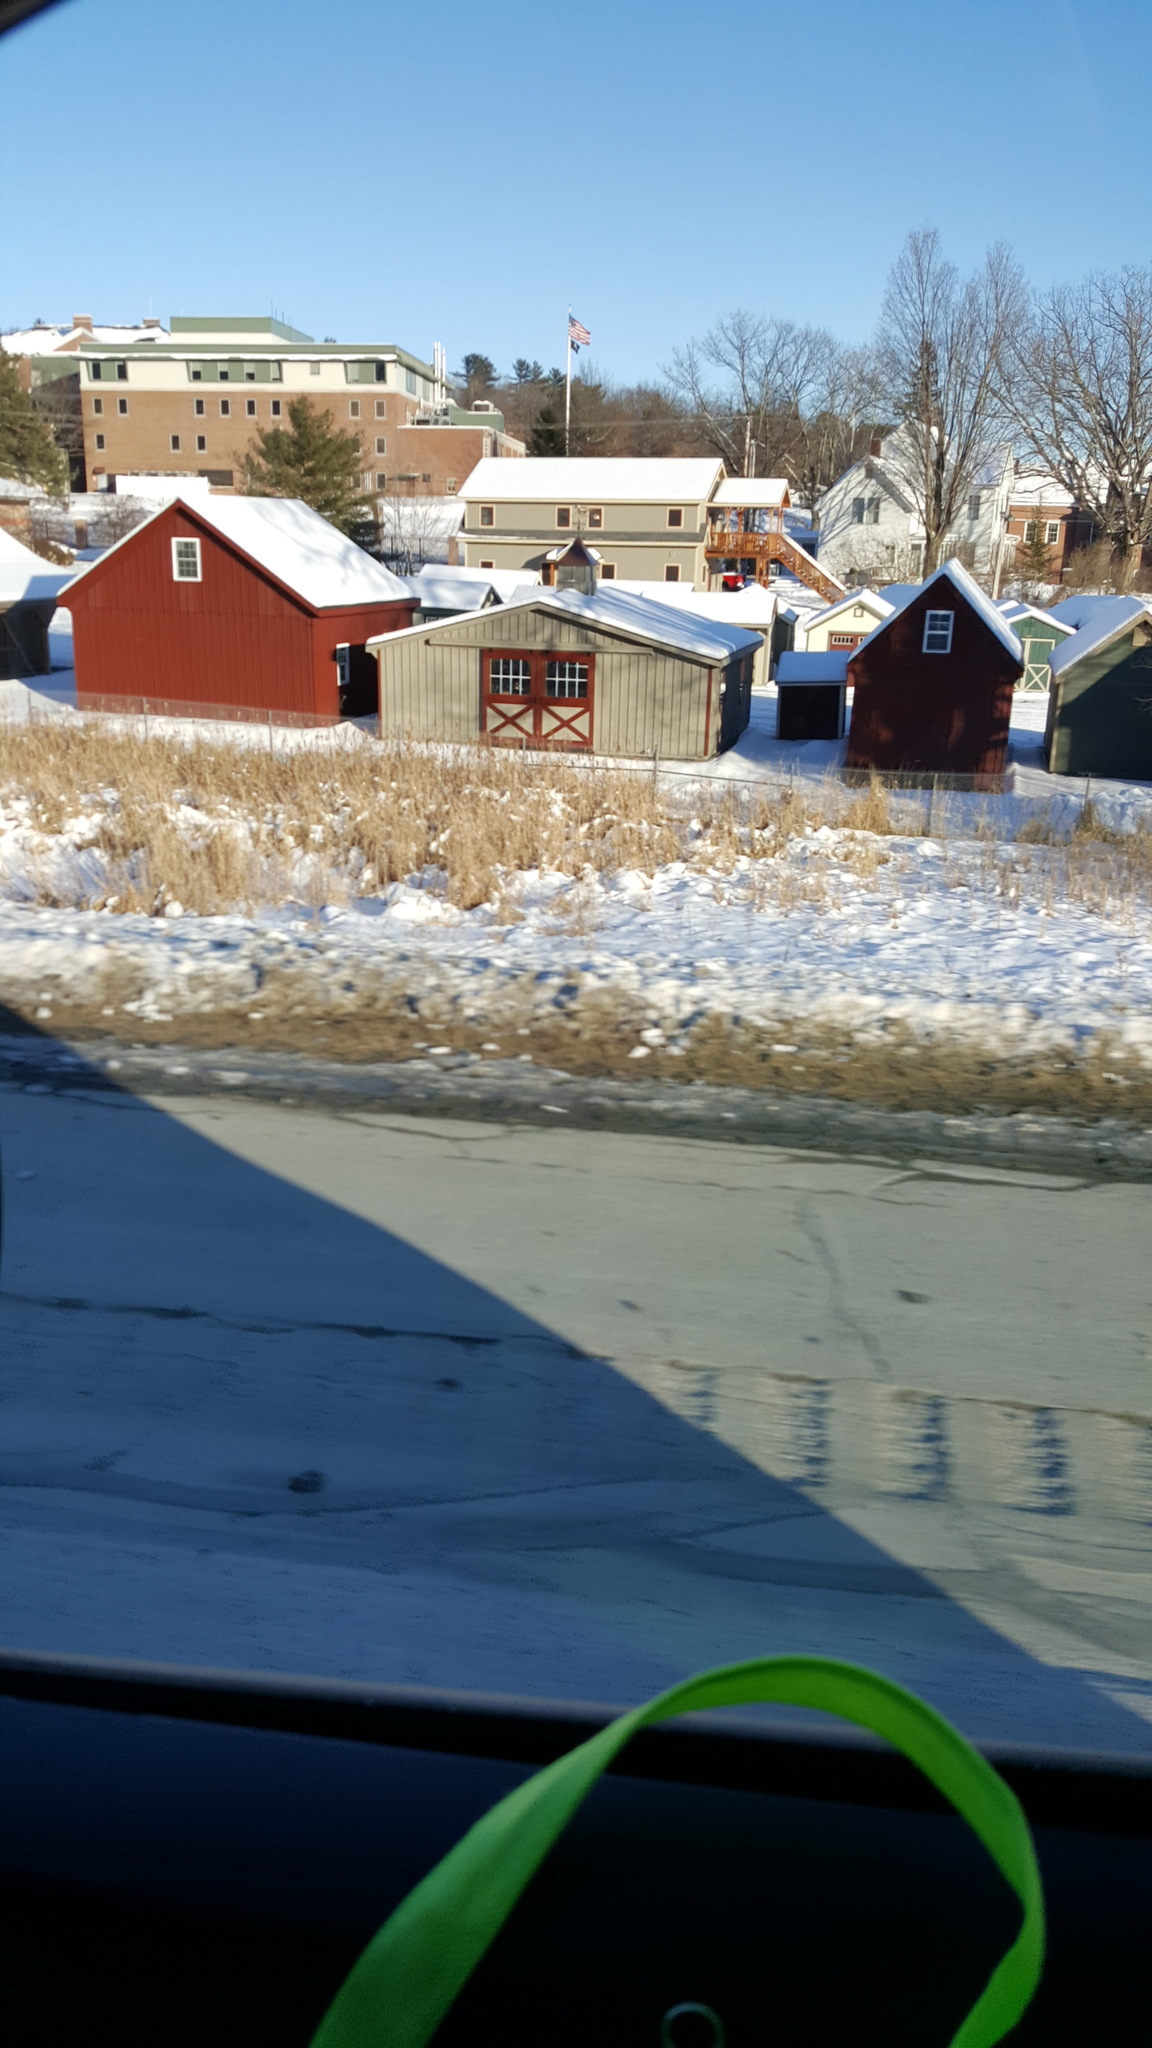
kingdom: Plantae
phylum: Tracheophyta
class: Liliopsida
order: Poales
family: Typhaceae
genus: Typha
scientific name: Typha
